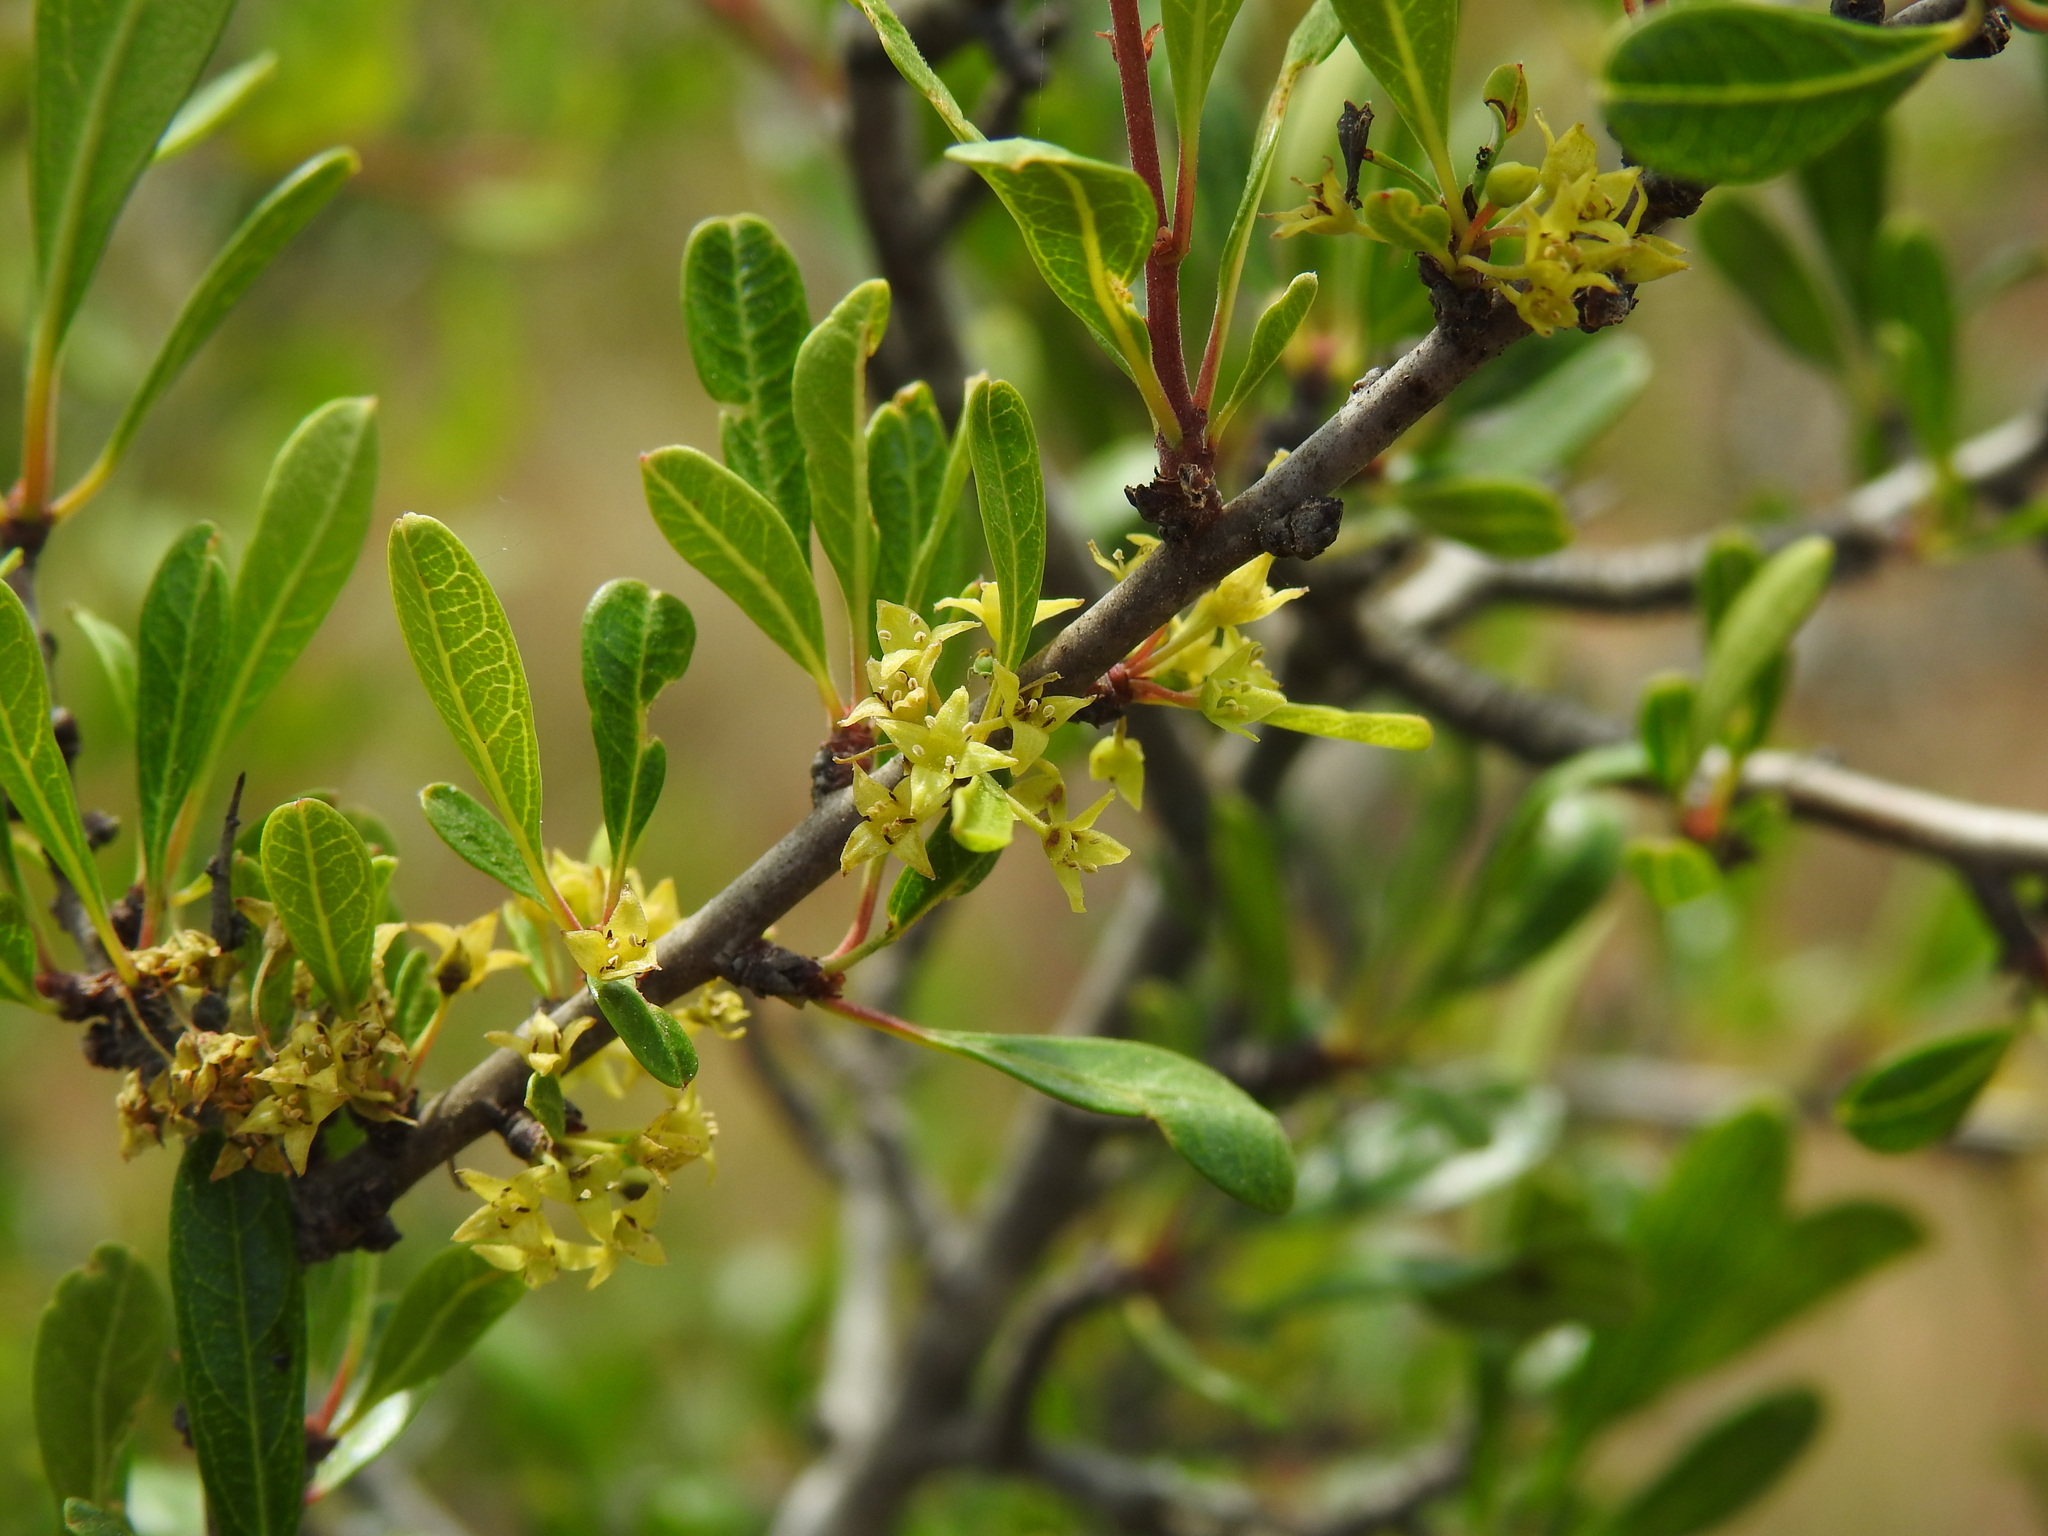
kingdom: Plantae
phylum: Tracheophyta
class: Magnoliopsida
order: Rosales
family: Rhamnaceae
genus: Rhamnus
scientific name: Rhamnus oleoides
